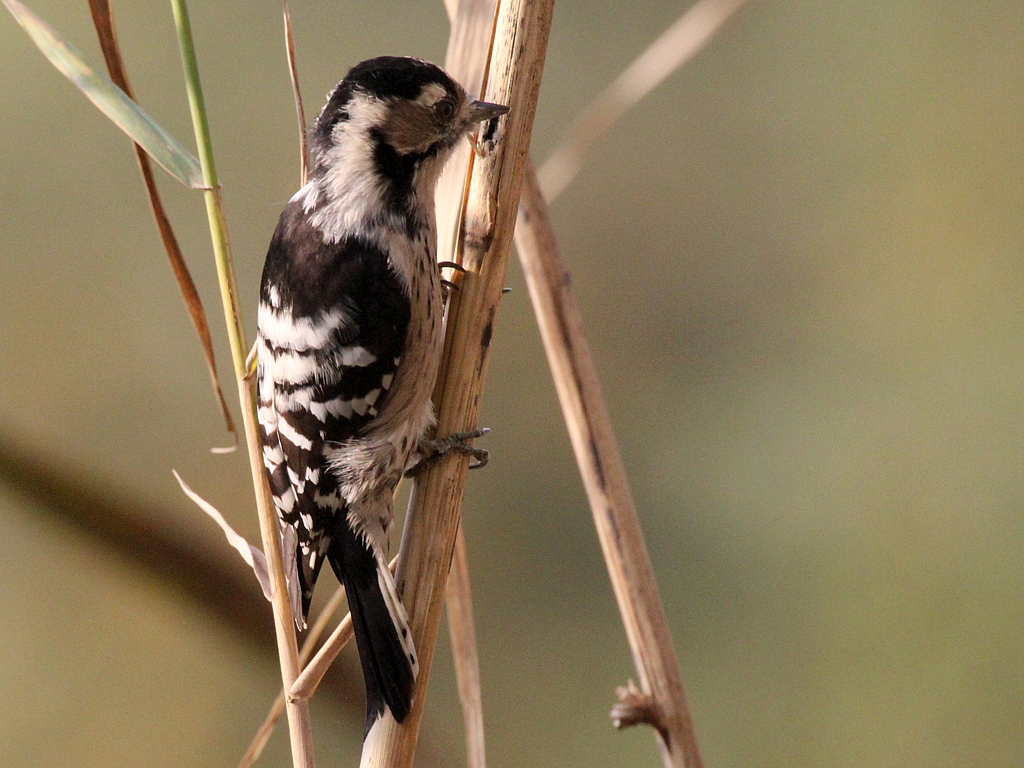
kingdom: Animalia
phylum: Chordata
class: Aves
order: Piciformes
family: Picidae
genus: Dryobates
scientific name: Dryobates minor
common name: Lesser spotted woodpecker
